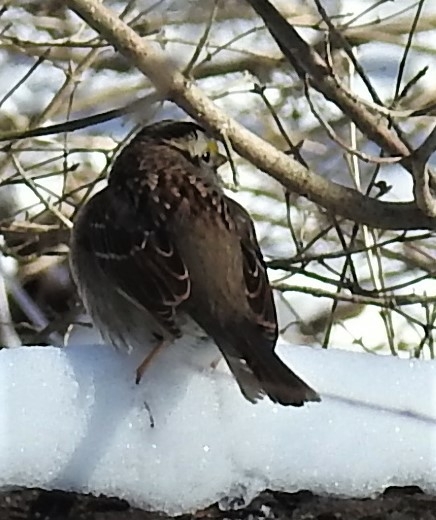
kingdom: Animalia
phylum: Chordata
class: Aves
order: Passeriformes
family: Passerellidae
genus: Zonotrichia
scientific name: Zonotrichia albicollis
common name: White-throated sparrow
